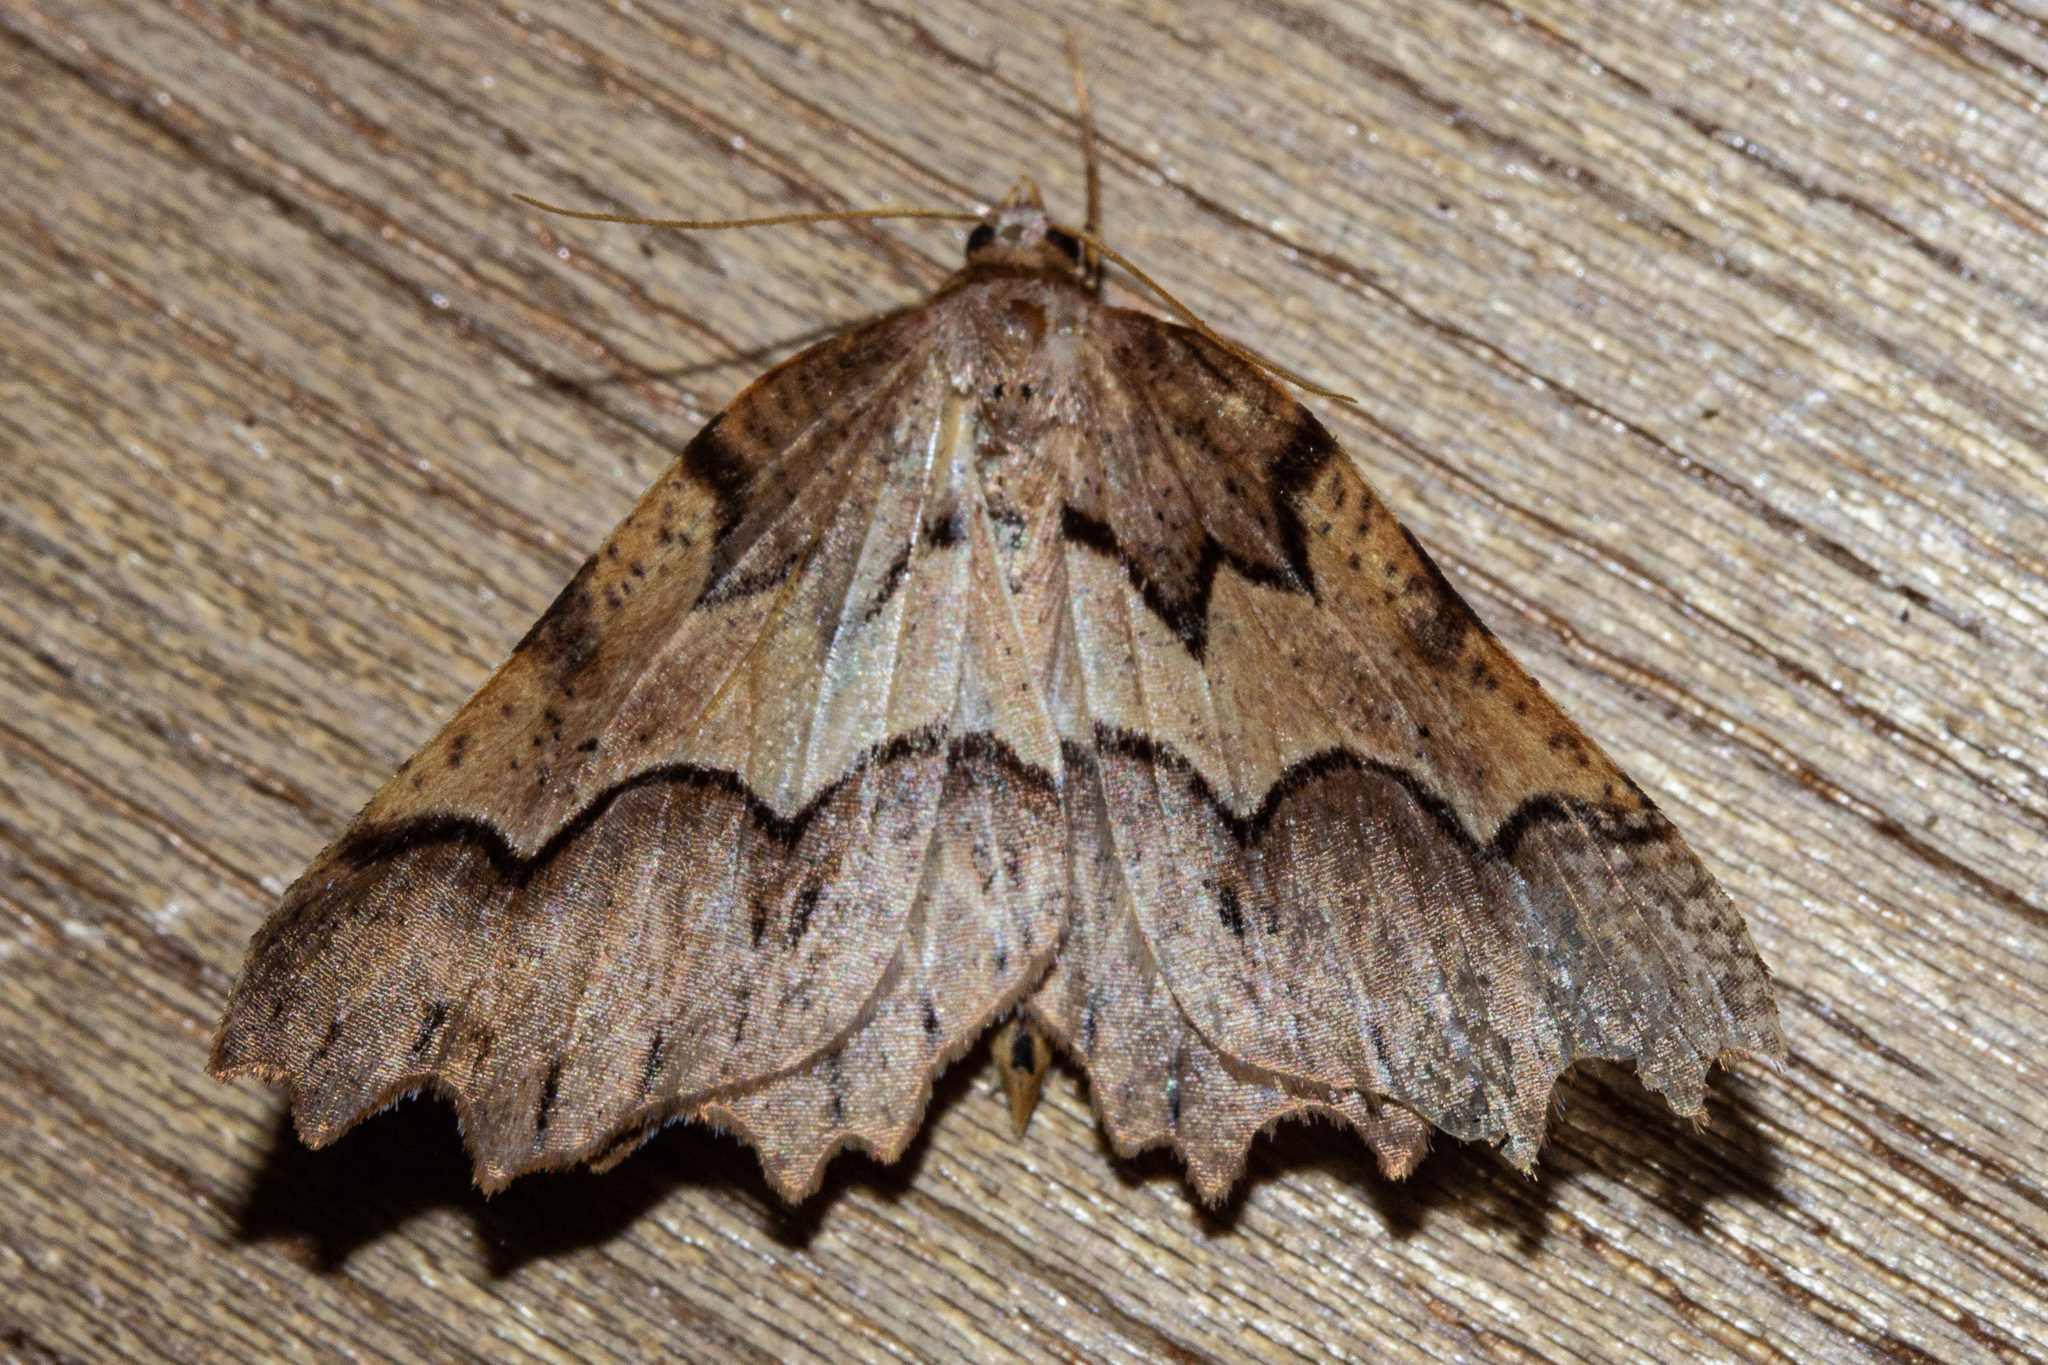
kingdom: Animalia
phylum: Arthropoda
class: Insecta
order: Lepidoptera
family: Geometridae
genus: Ischalis
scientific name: Ischalis fortinata
